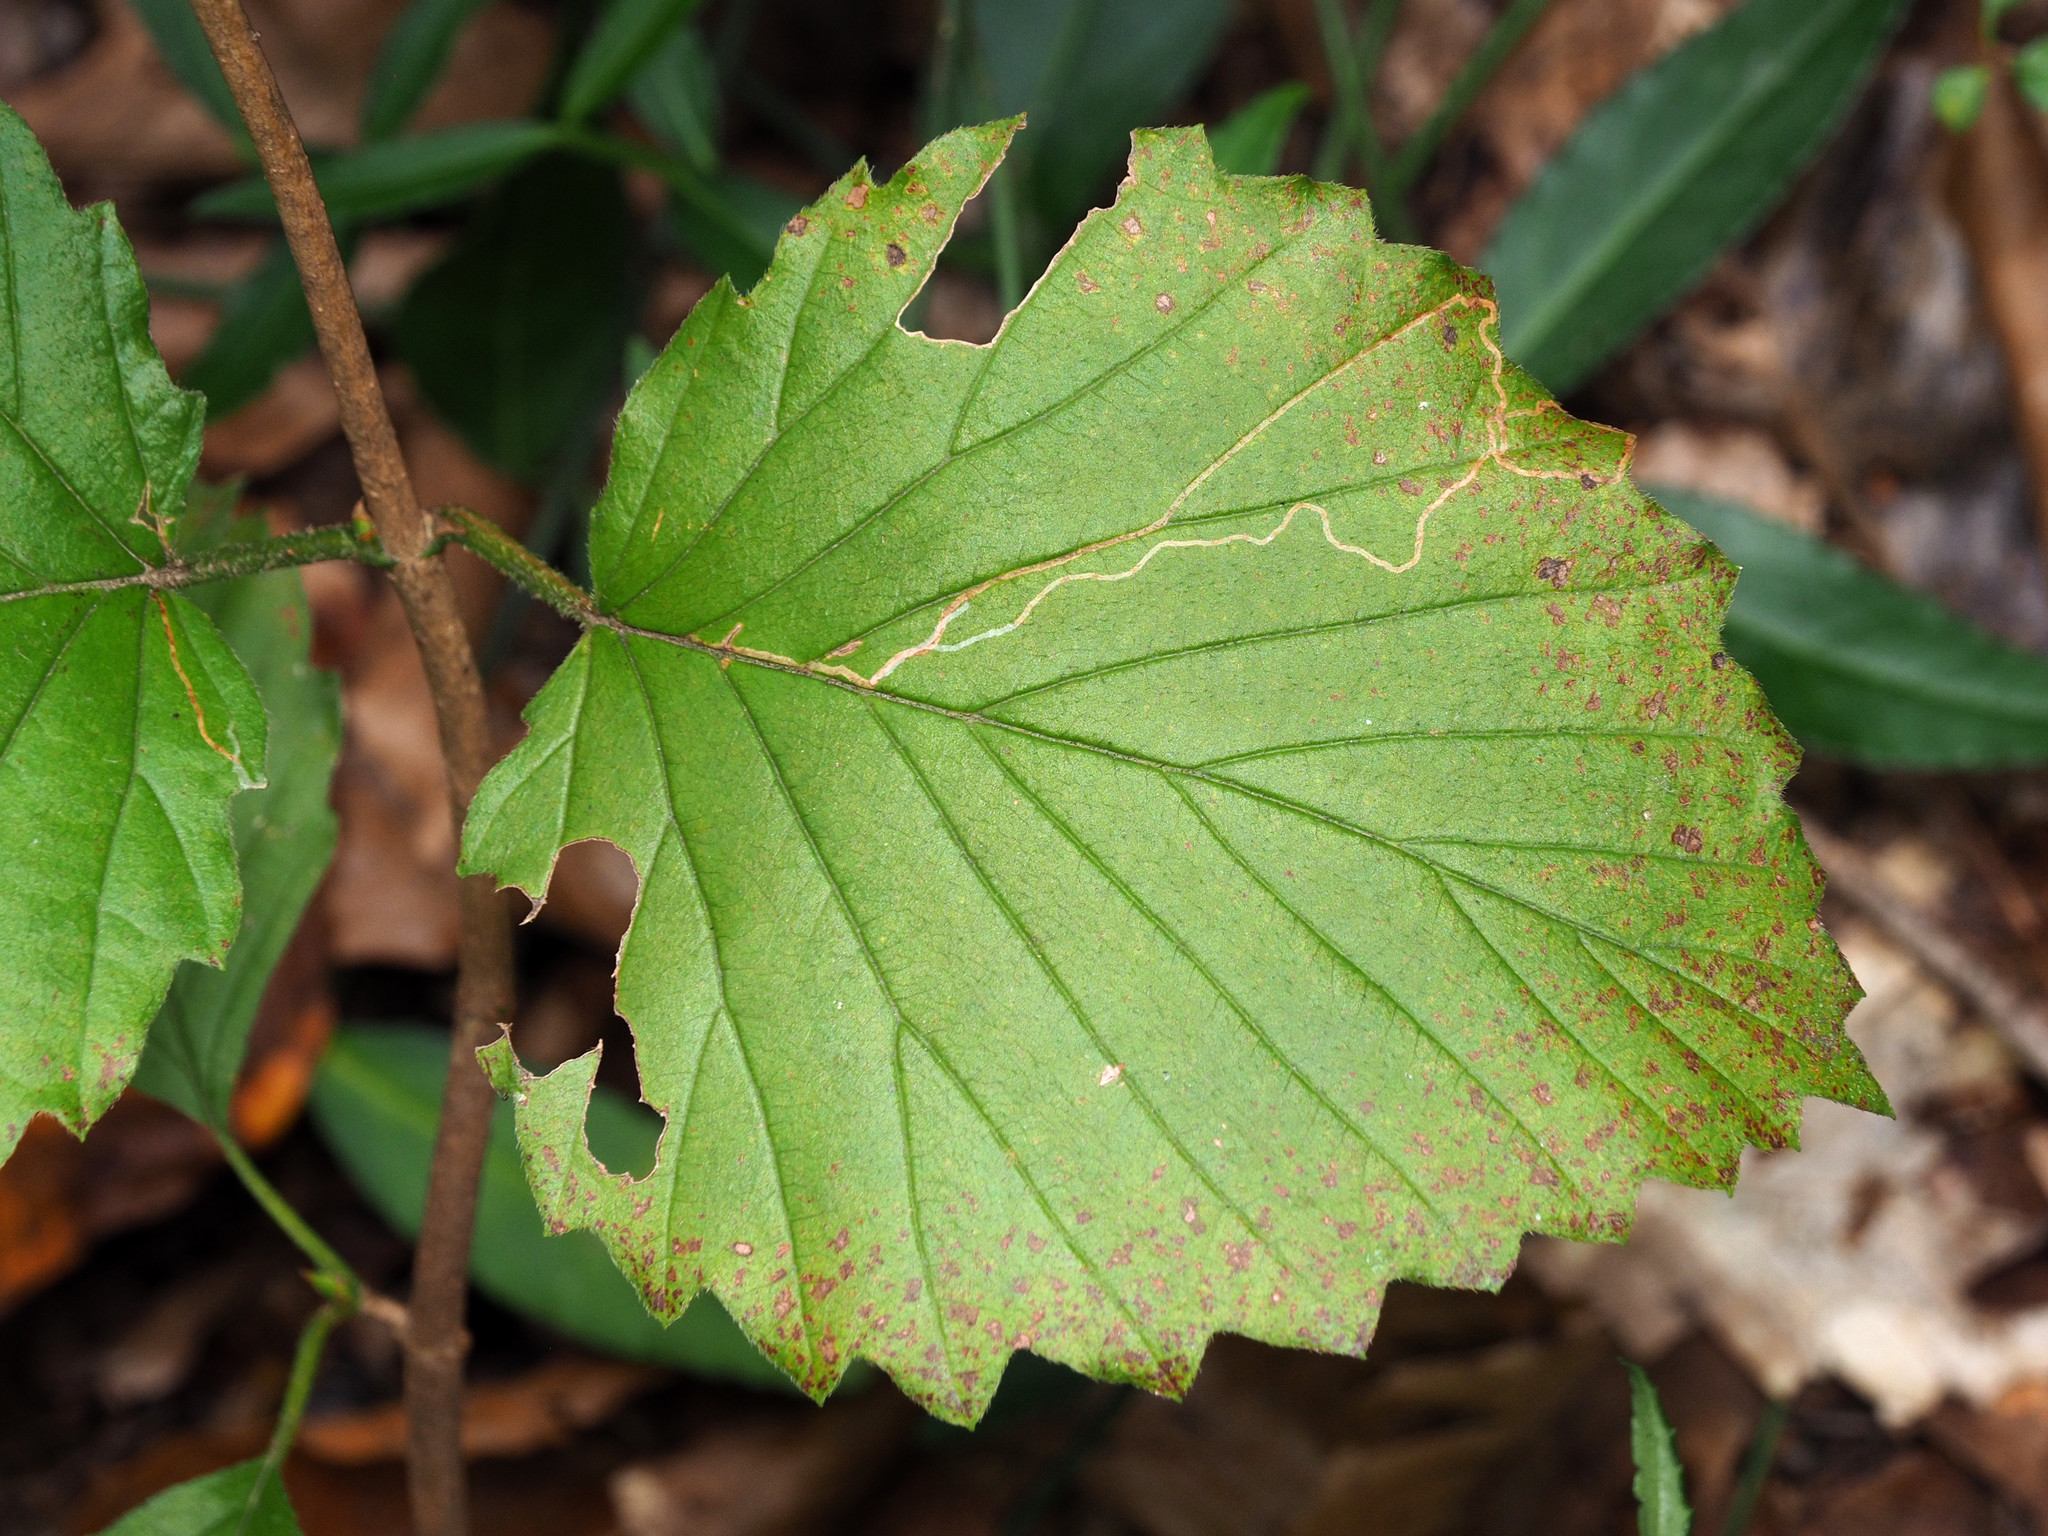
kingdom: Animalia
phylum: Arthropoda
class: Insecta
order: Lepidoptera
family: Gracillariidae
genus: Marmara
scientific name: Marmara viburnella
